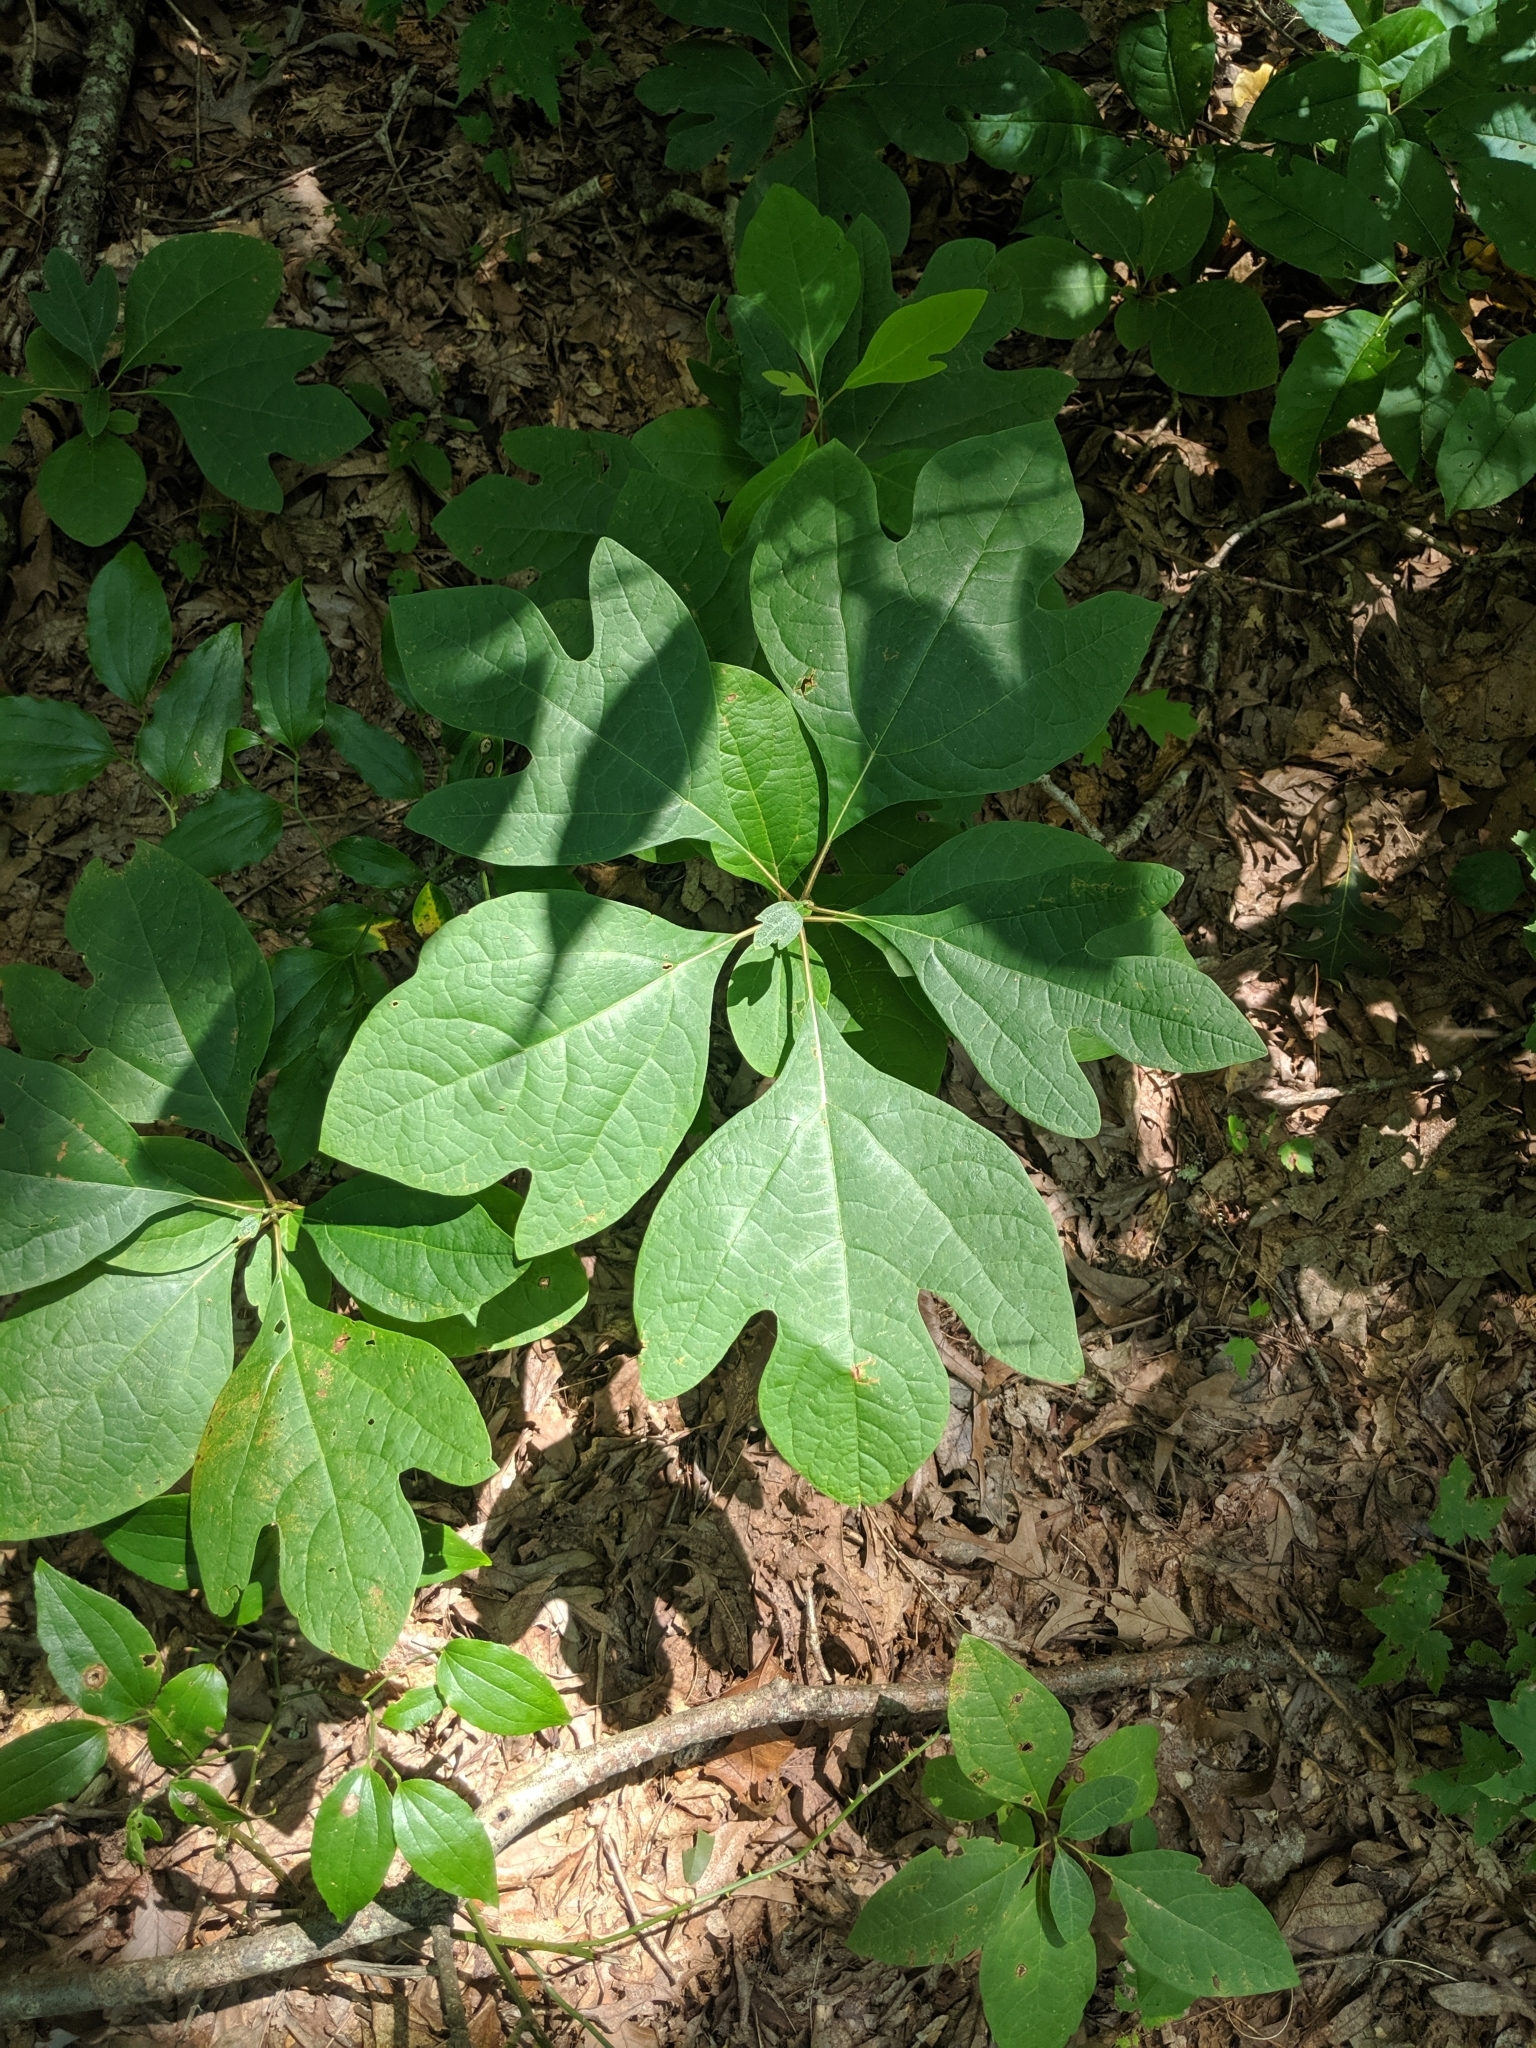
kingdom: Plantae
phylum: Tracheophyta
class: Magnoliopsida
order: Laurales
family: Lauraceae
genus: Sassafras
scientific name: Sassafras albidum
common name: Sassafras
